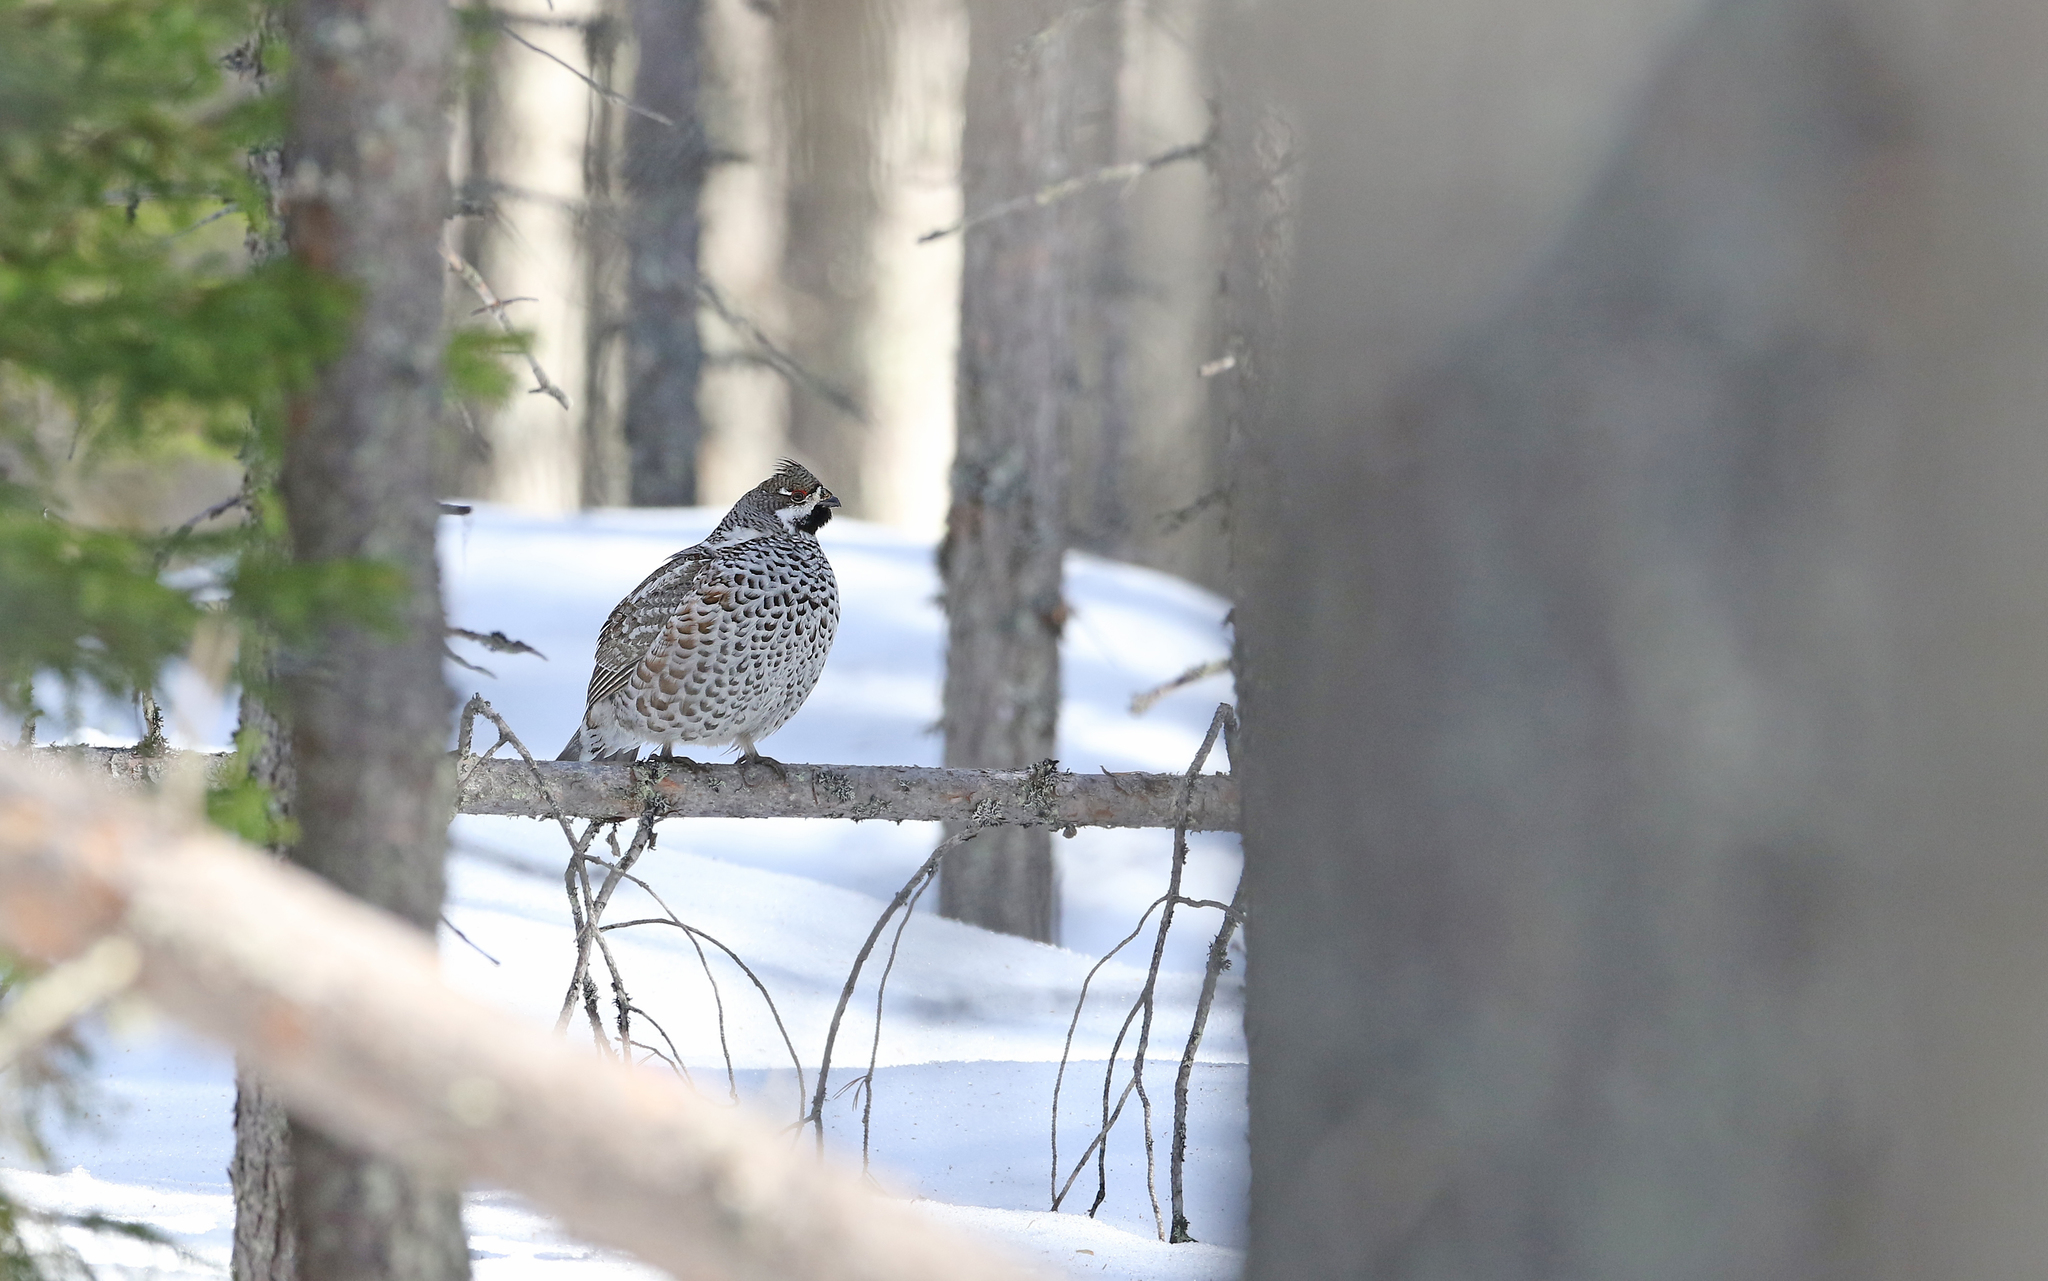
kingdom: Animalia
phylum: Chordata
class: Aves
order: Galliformes
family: Phasianidae
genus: Tetrastes
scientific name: Tetrastes bonasia
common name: Hazel grouse
